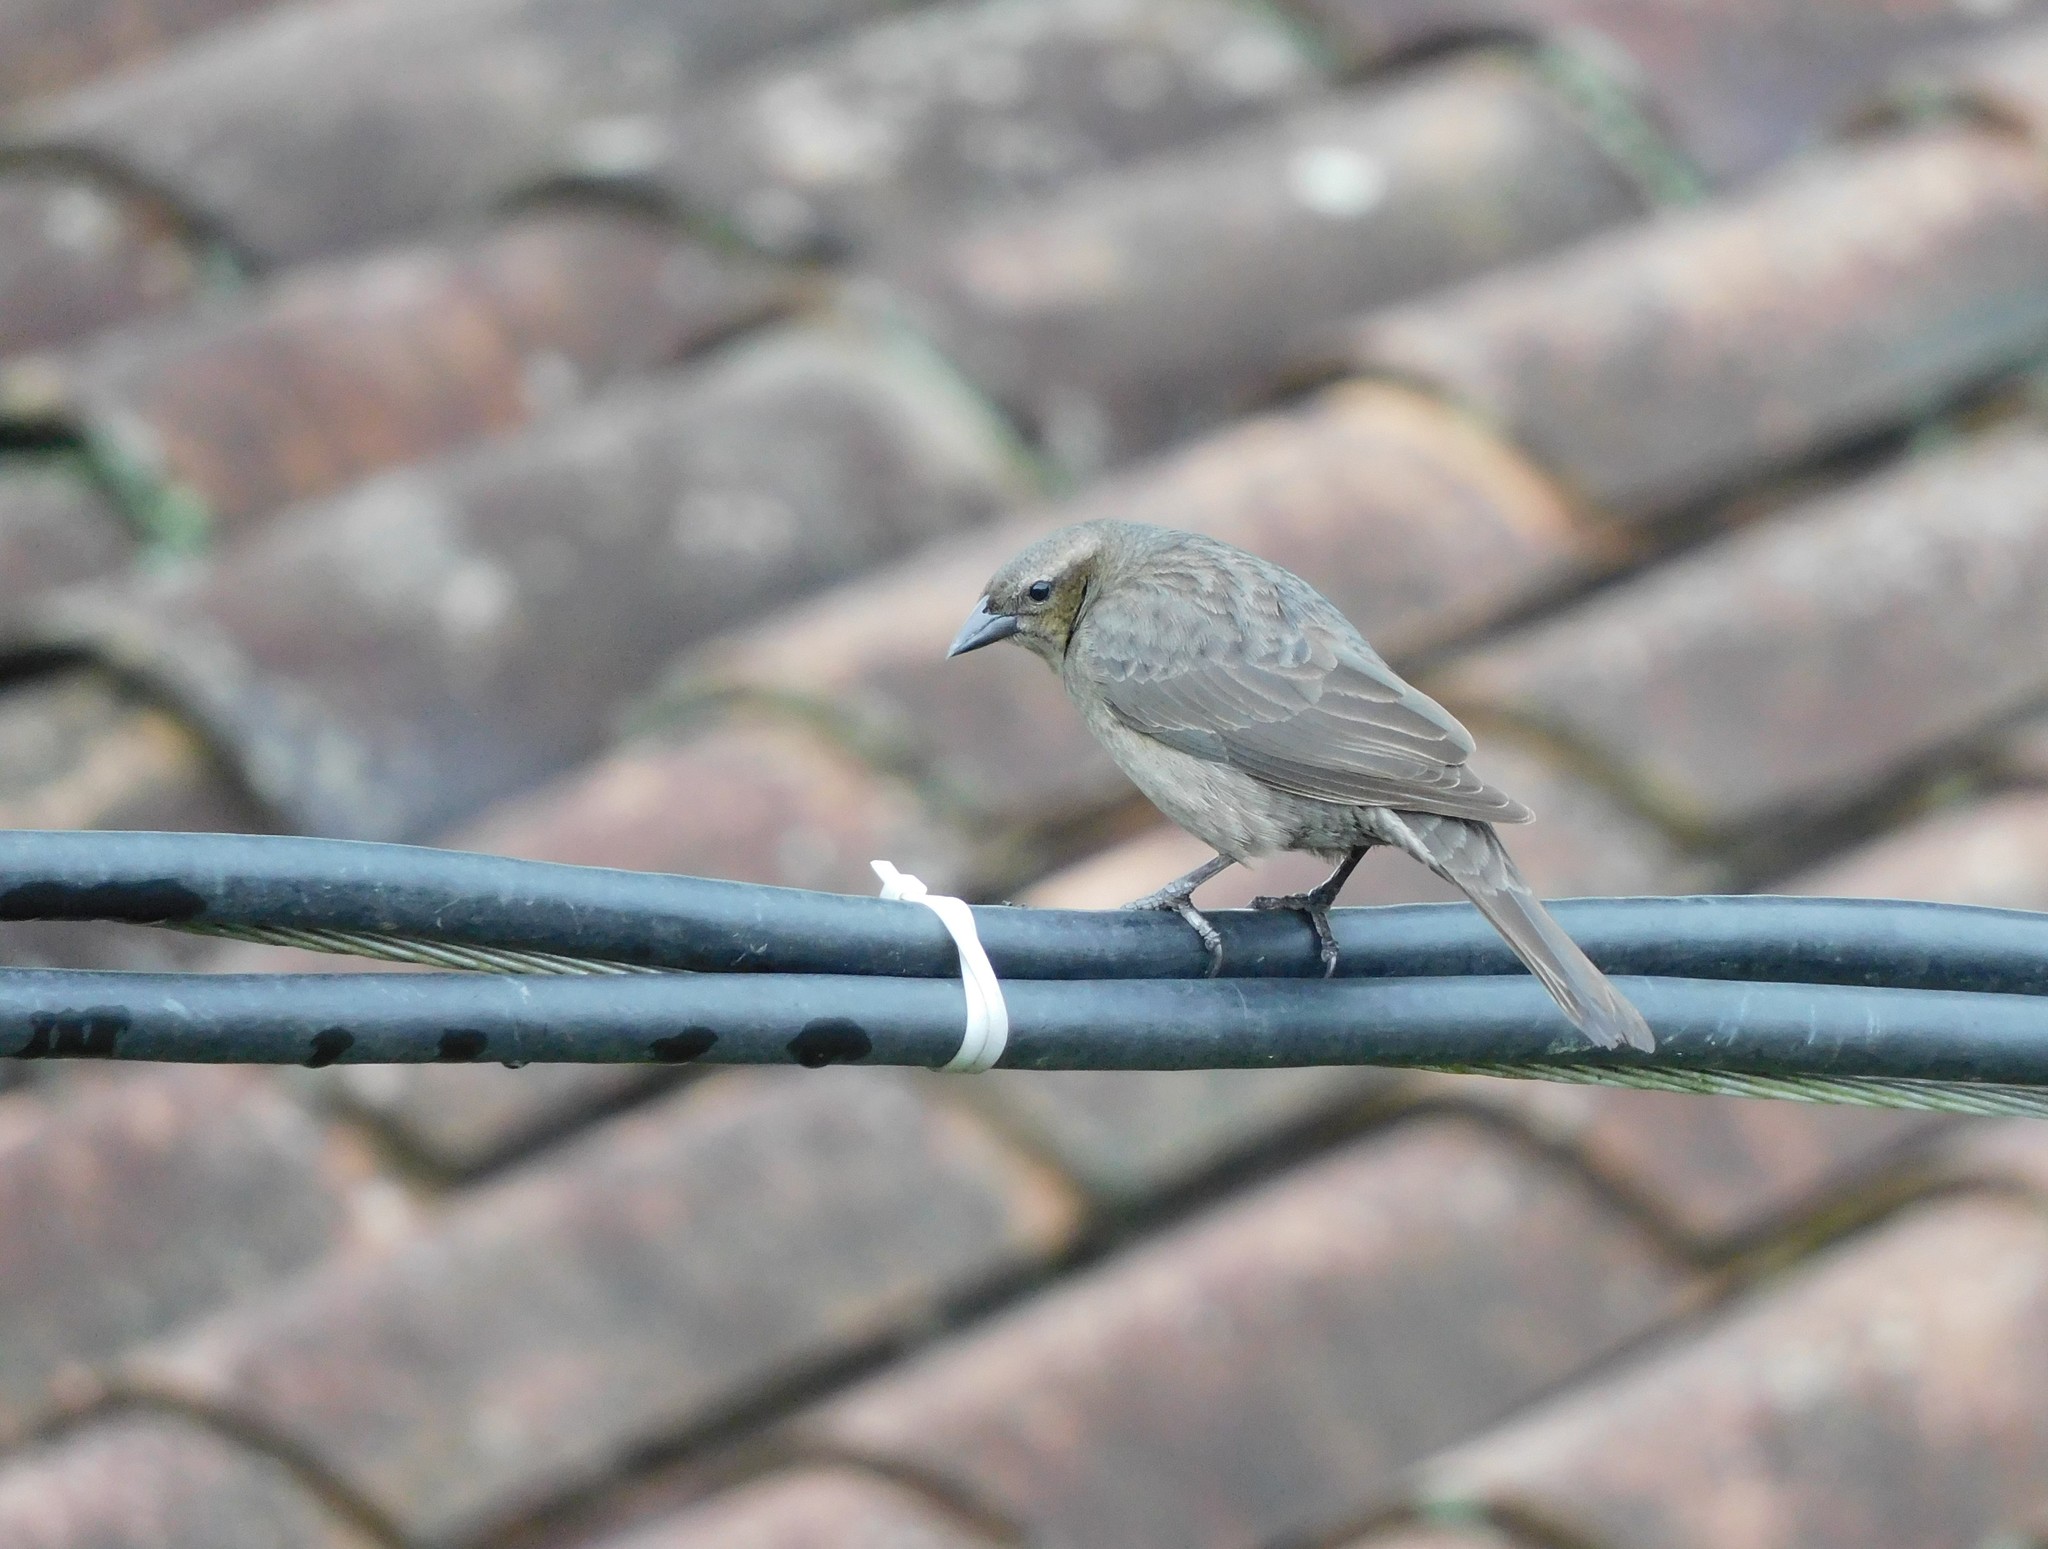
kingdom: Animalia
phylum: Chordata
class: Aves
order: Passeriformes
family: Icteridae
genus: Molothrus
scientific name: Molothrus bonariensis
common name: Shiny cowbird
